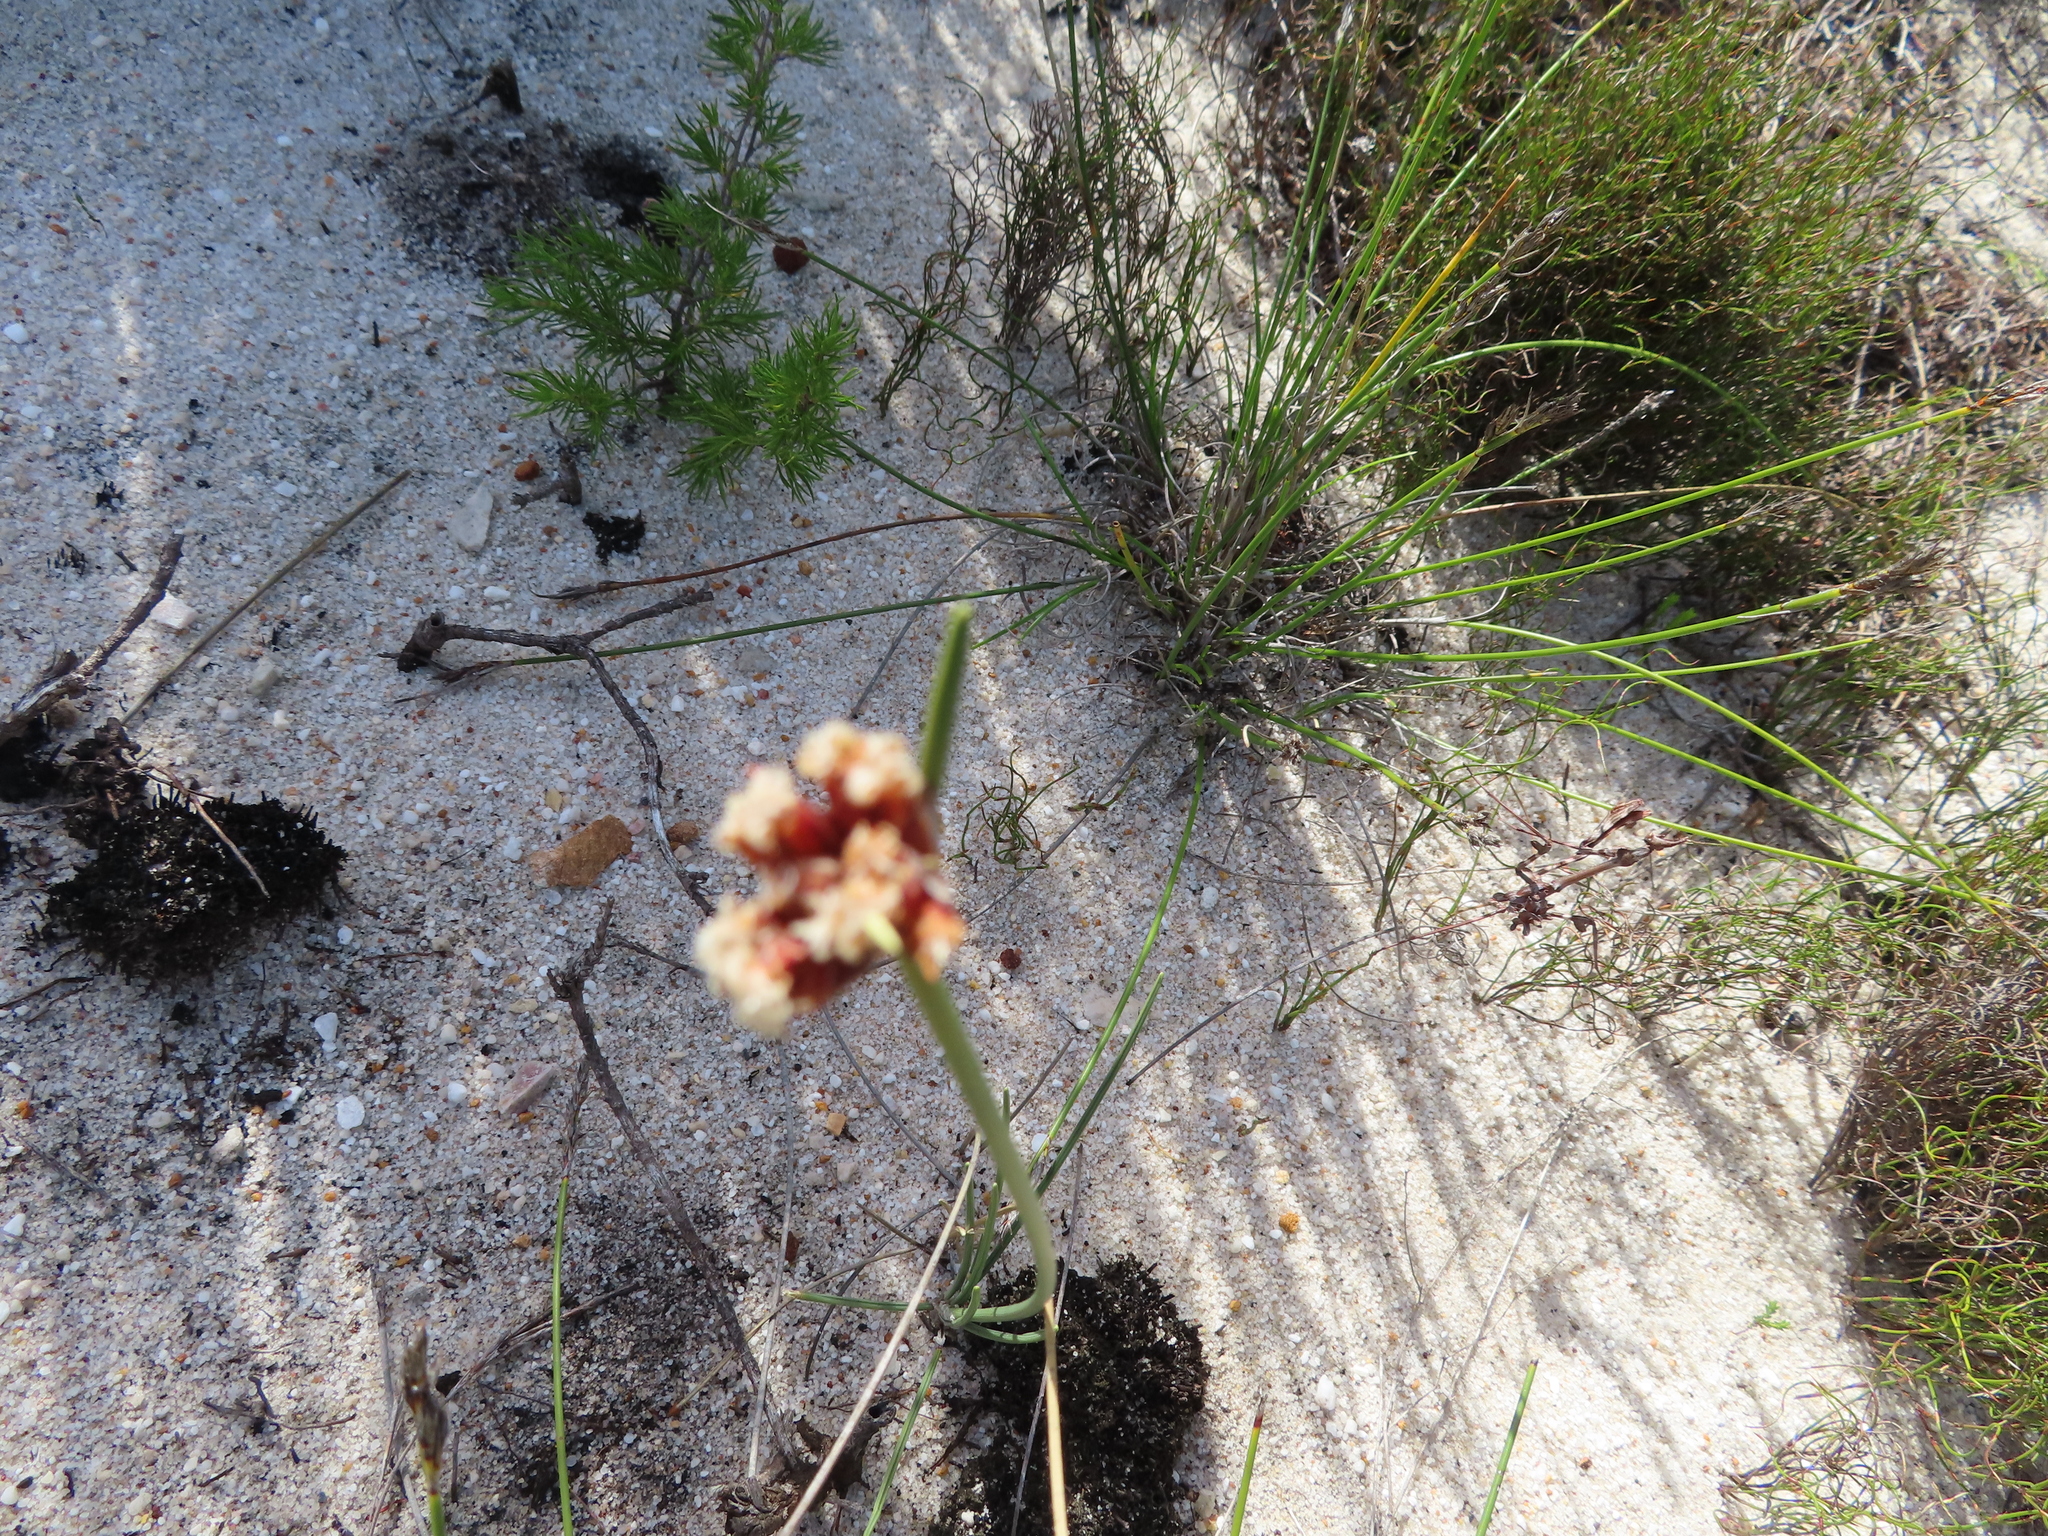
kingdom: Plantae
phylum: Tracheophyta
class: Liliopsida
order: Poales
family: Cyperaceae
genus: Ficinia
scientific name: Ficinia bulbosa
